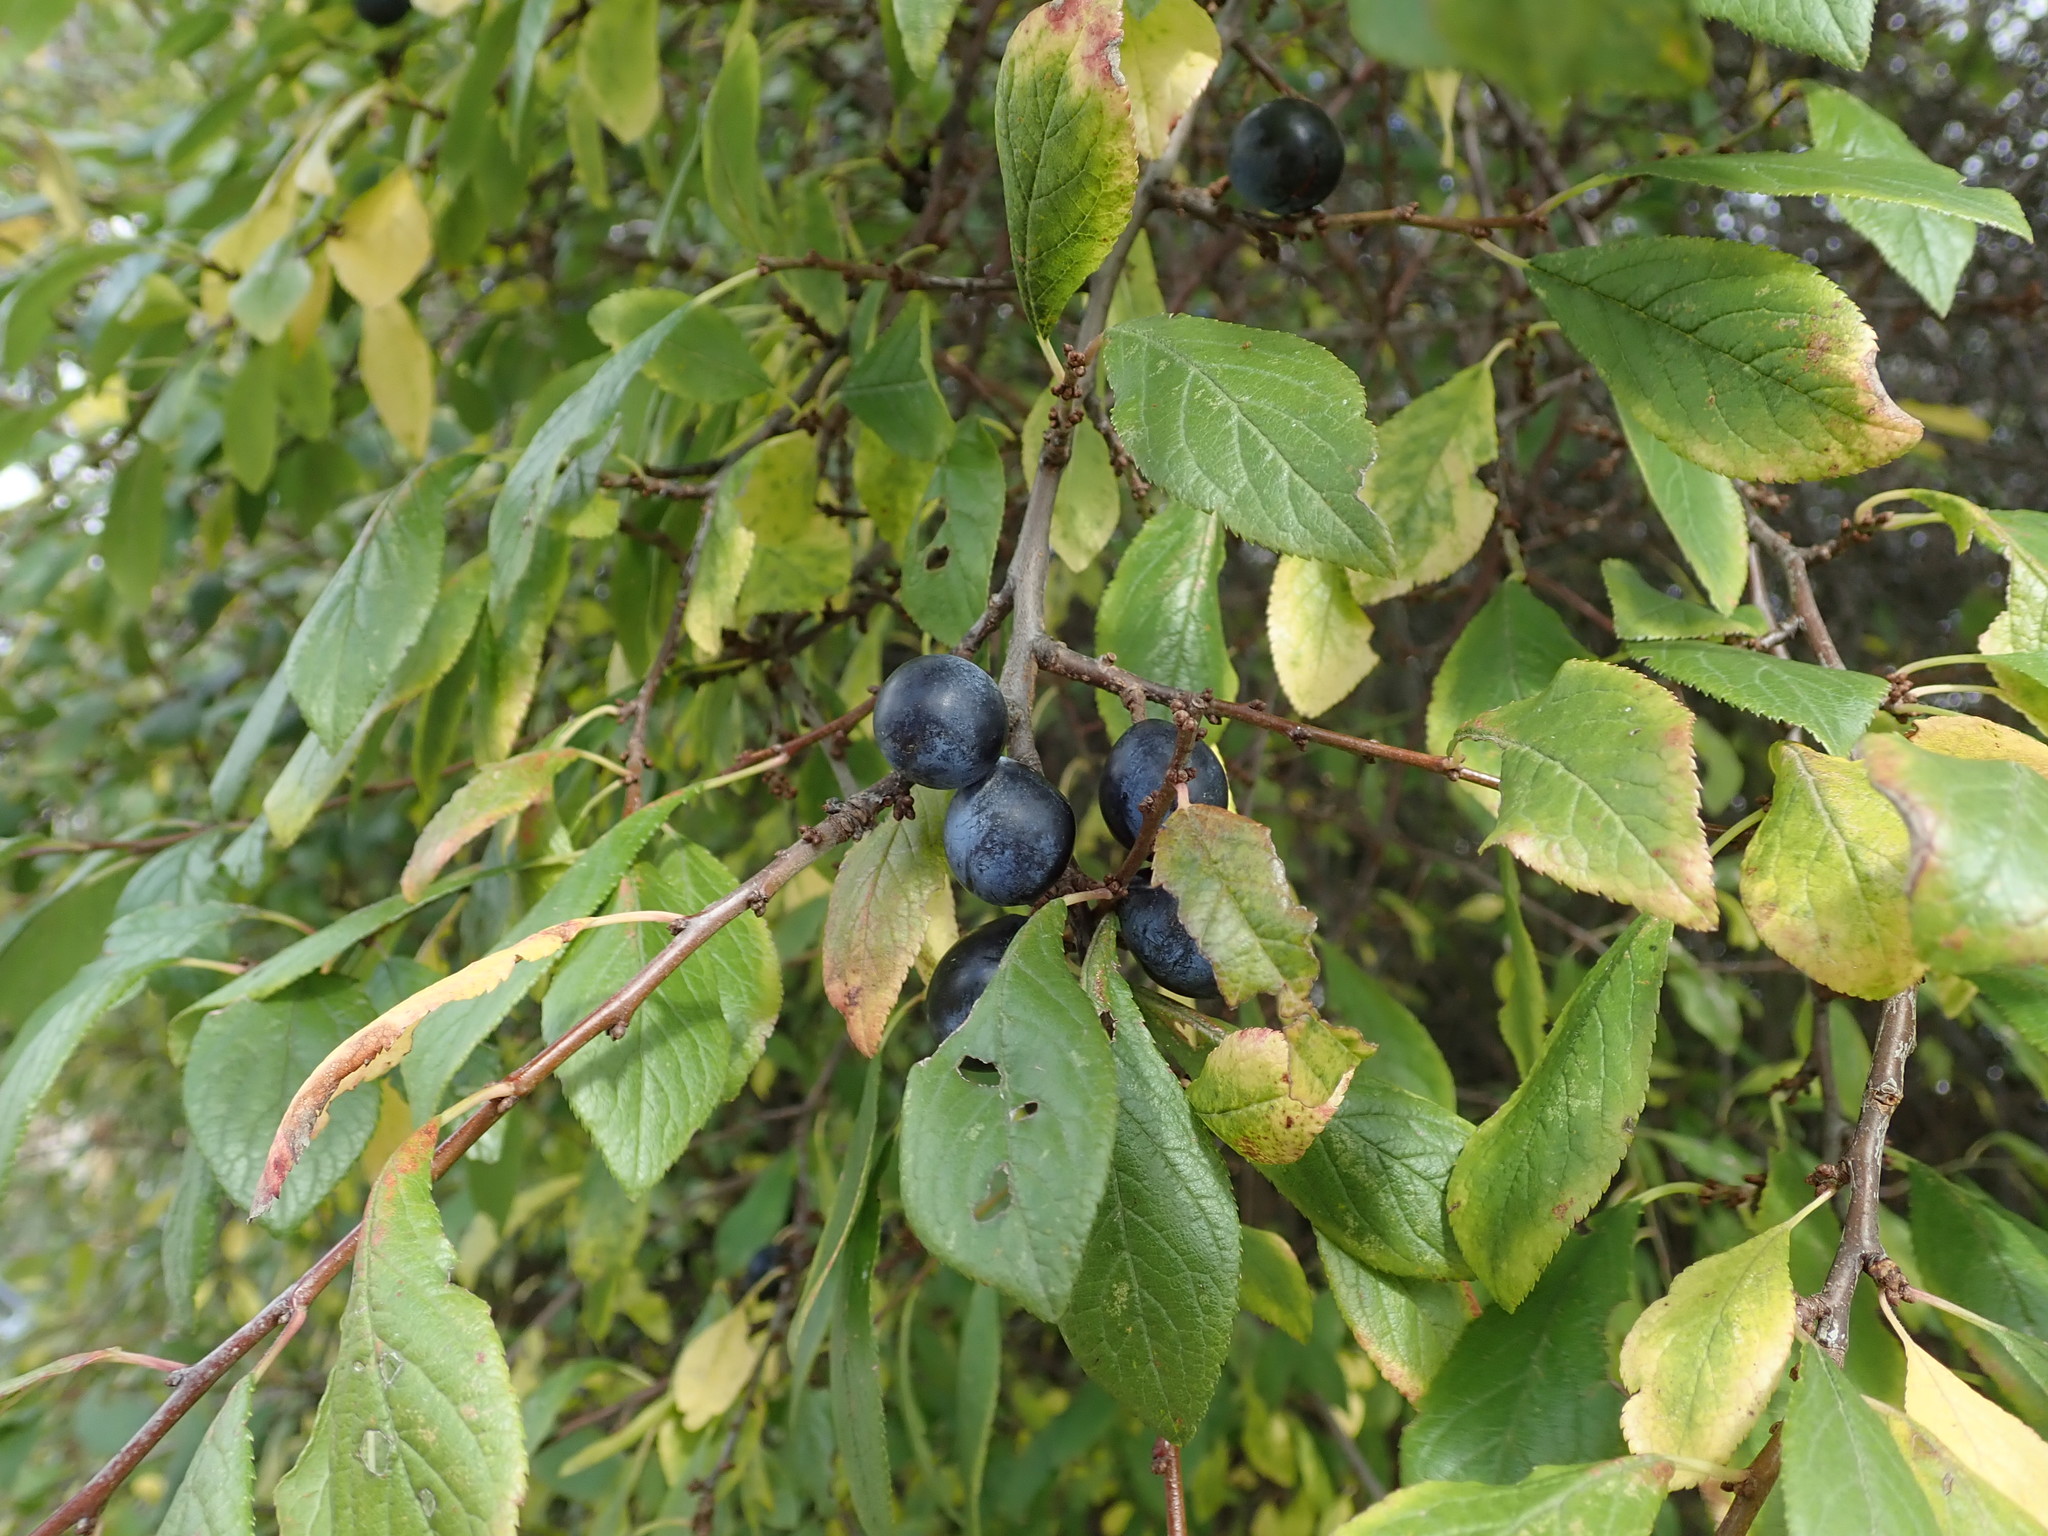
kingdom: Plantae
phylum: Tracheophyta
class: Magnoliopsida
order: Rosales
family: Rosaceae
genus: Prunus
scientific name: Prunus spinosa
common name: Blackthorn
